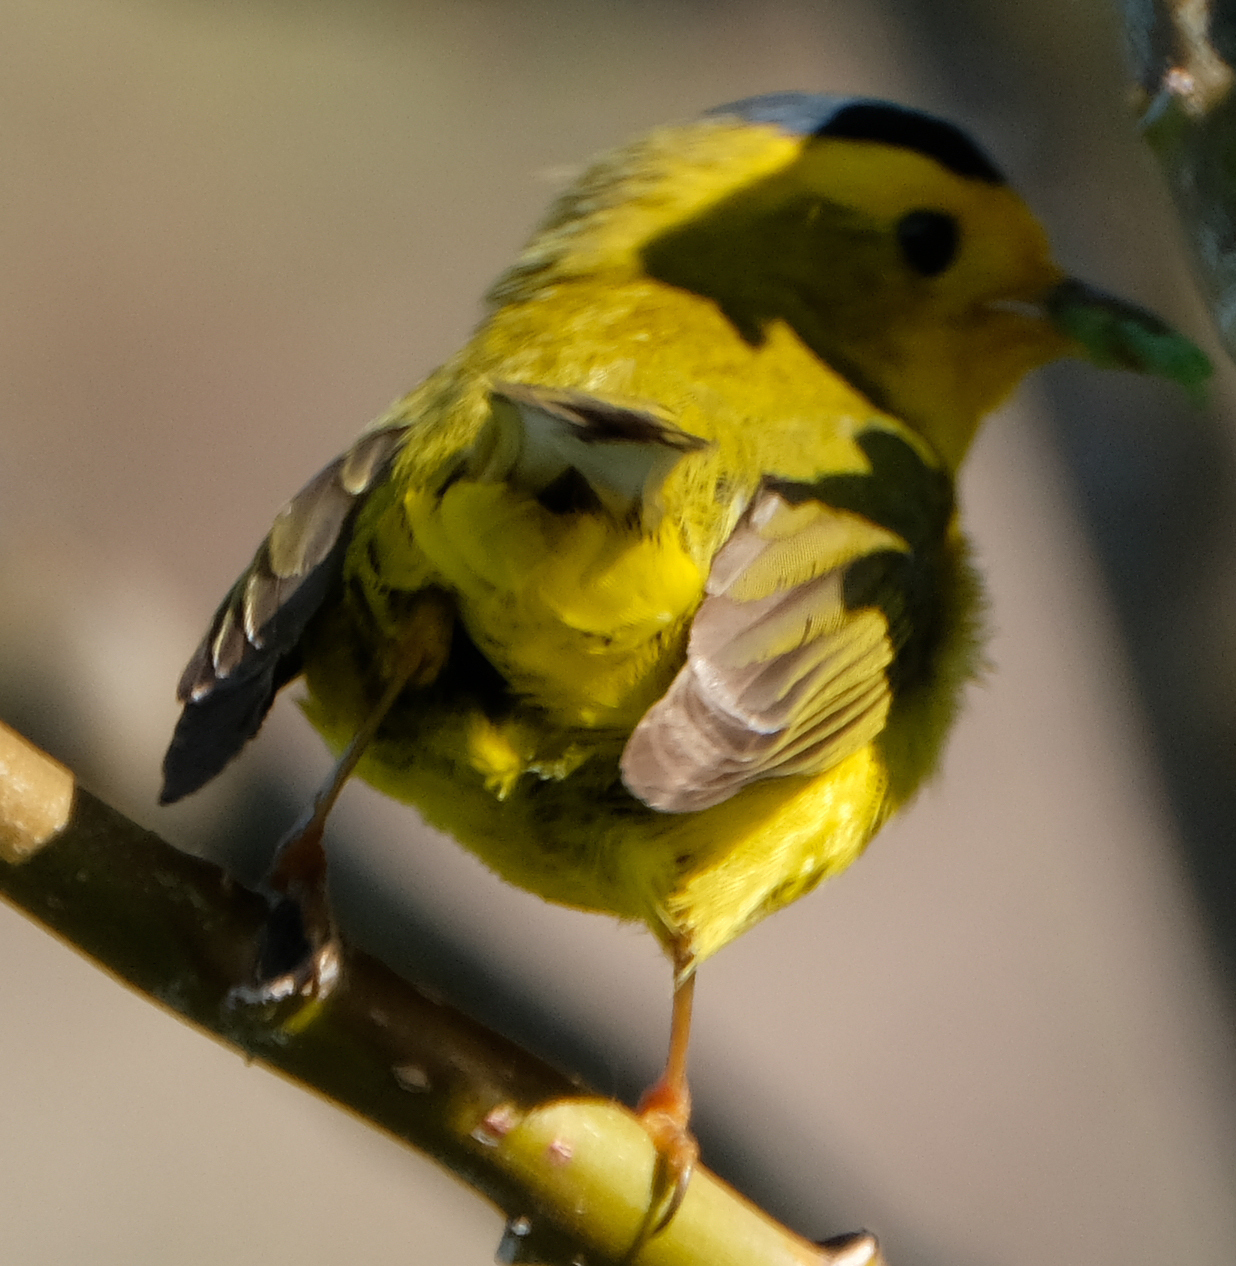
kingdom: Animalia
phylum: Chordata
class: Aves
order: Passeriformes
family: Parulidae
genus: Cardellina
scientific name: Cardellina pusilla
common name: Wilson's warbler
